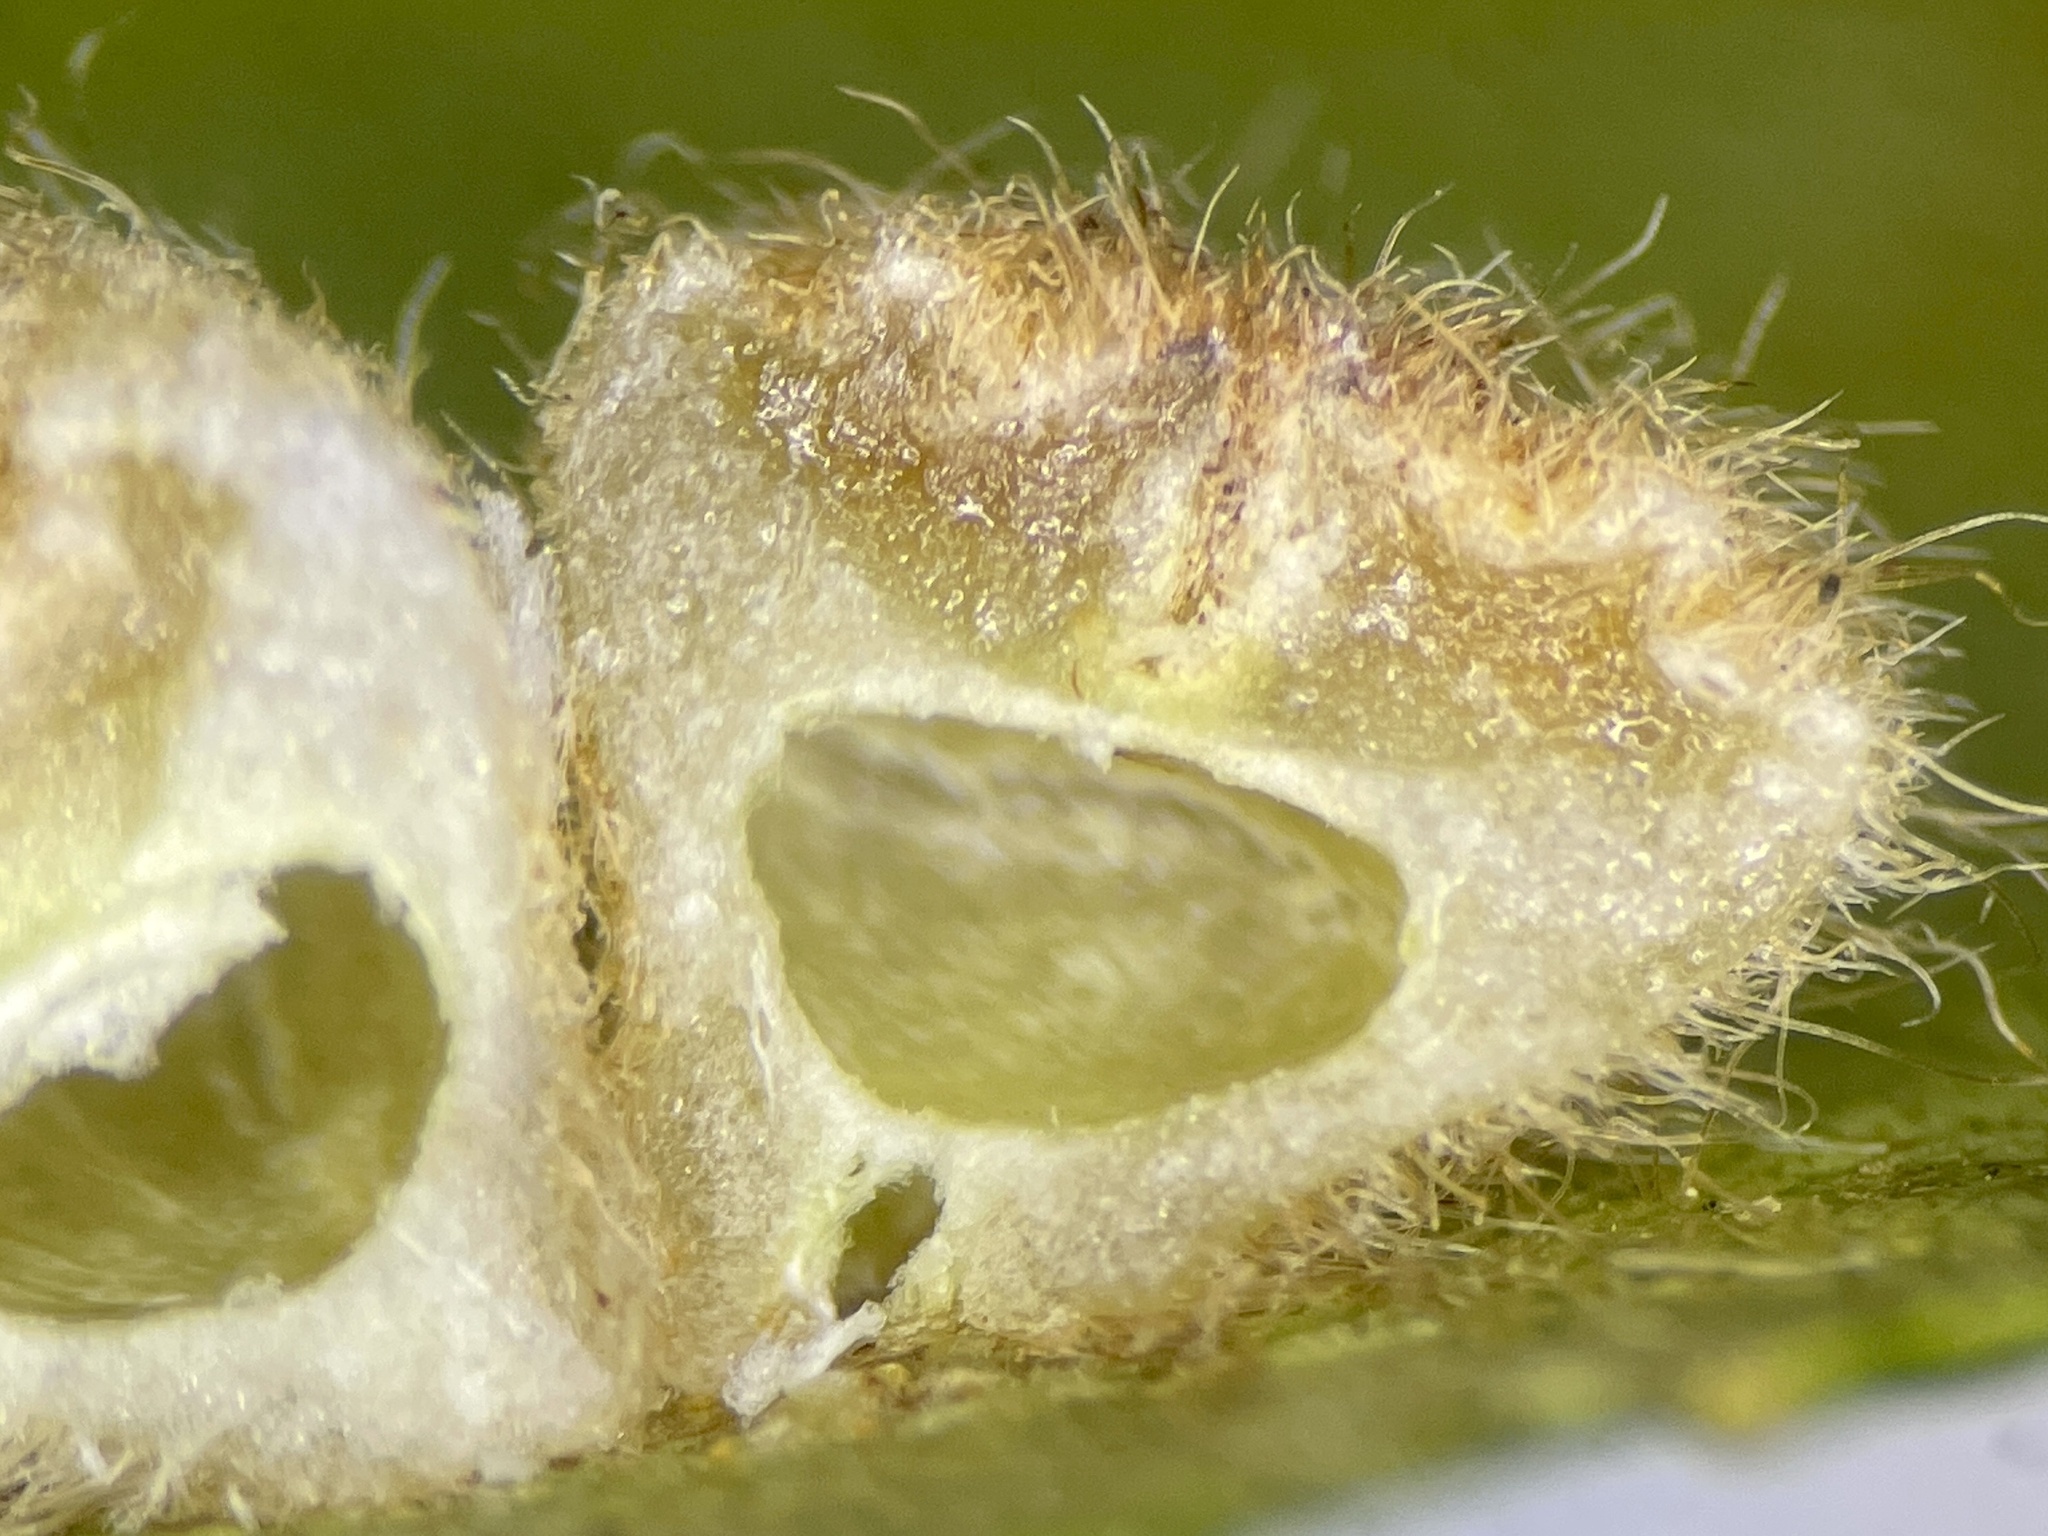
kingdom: Animalia
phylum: Arthropoda
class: Insecta
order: Diptera
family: Cecidomyiidae
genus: Caryomyia
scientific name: Caryomyia persicoides
